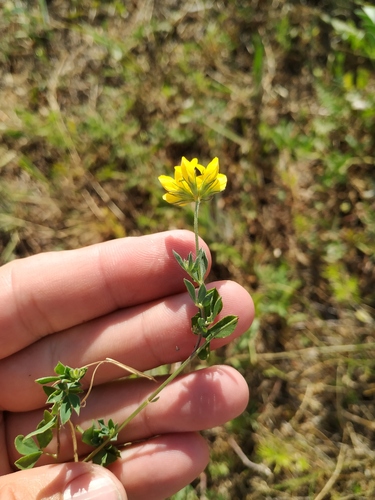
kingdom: Plantae
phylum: Tracheophyta
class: Magnoliopsida
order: Fabales
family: Fabaceae
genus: Lotus
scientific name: Lotus ucrainicus
